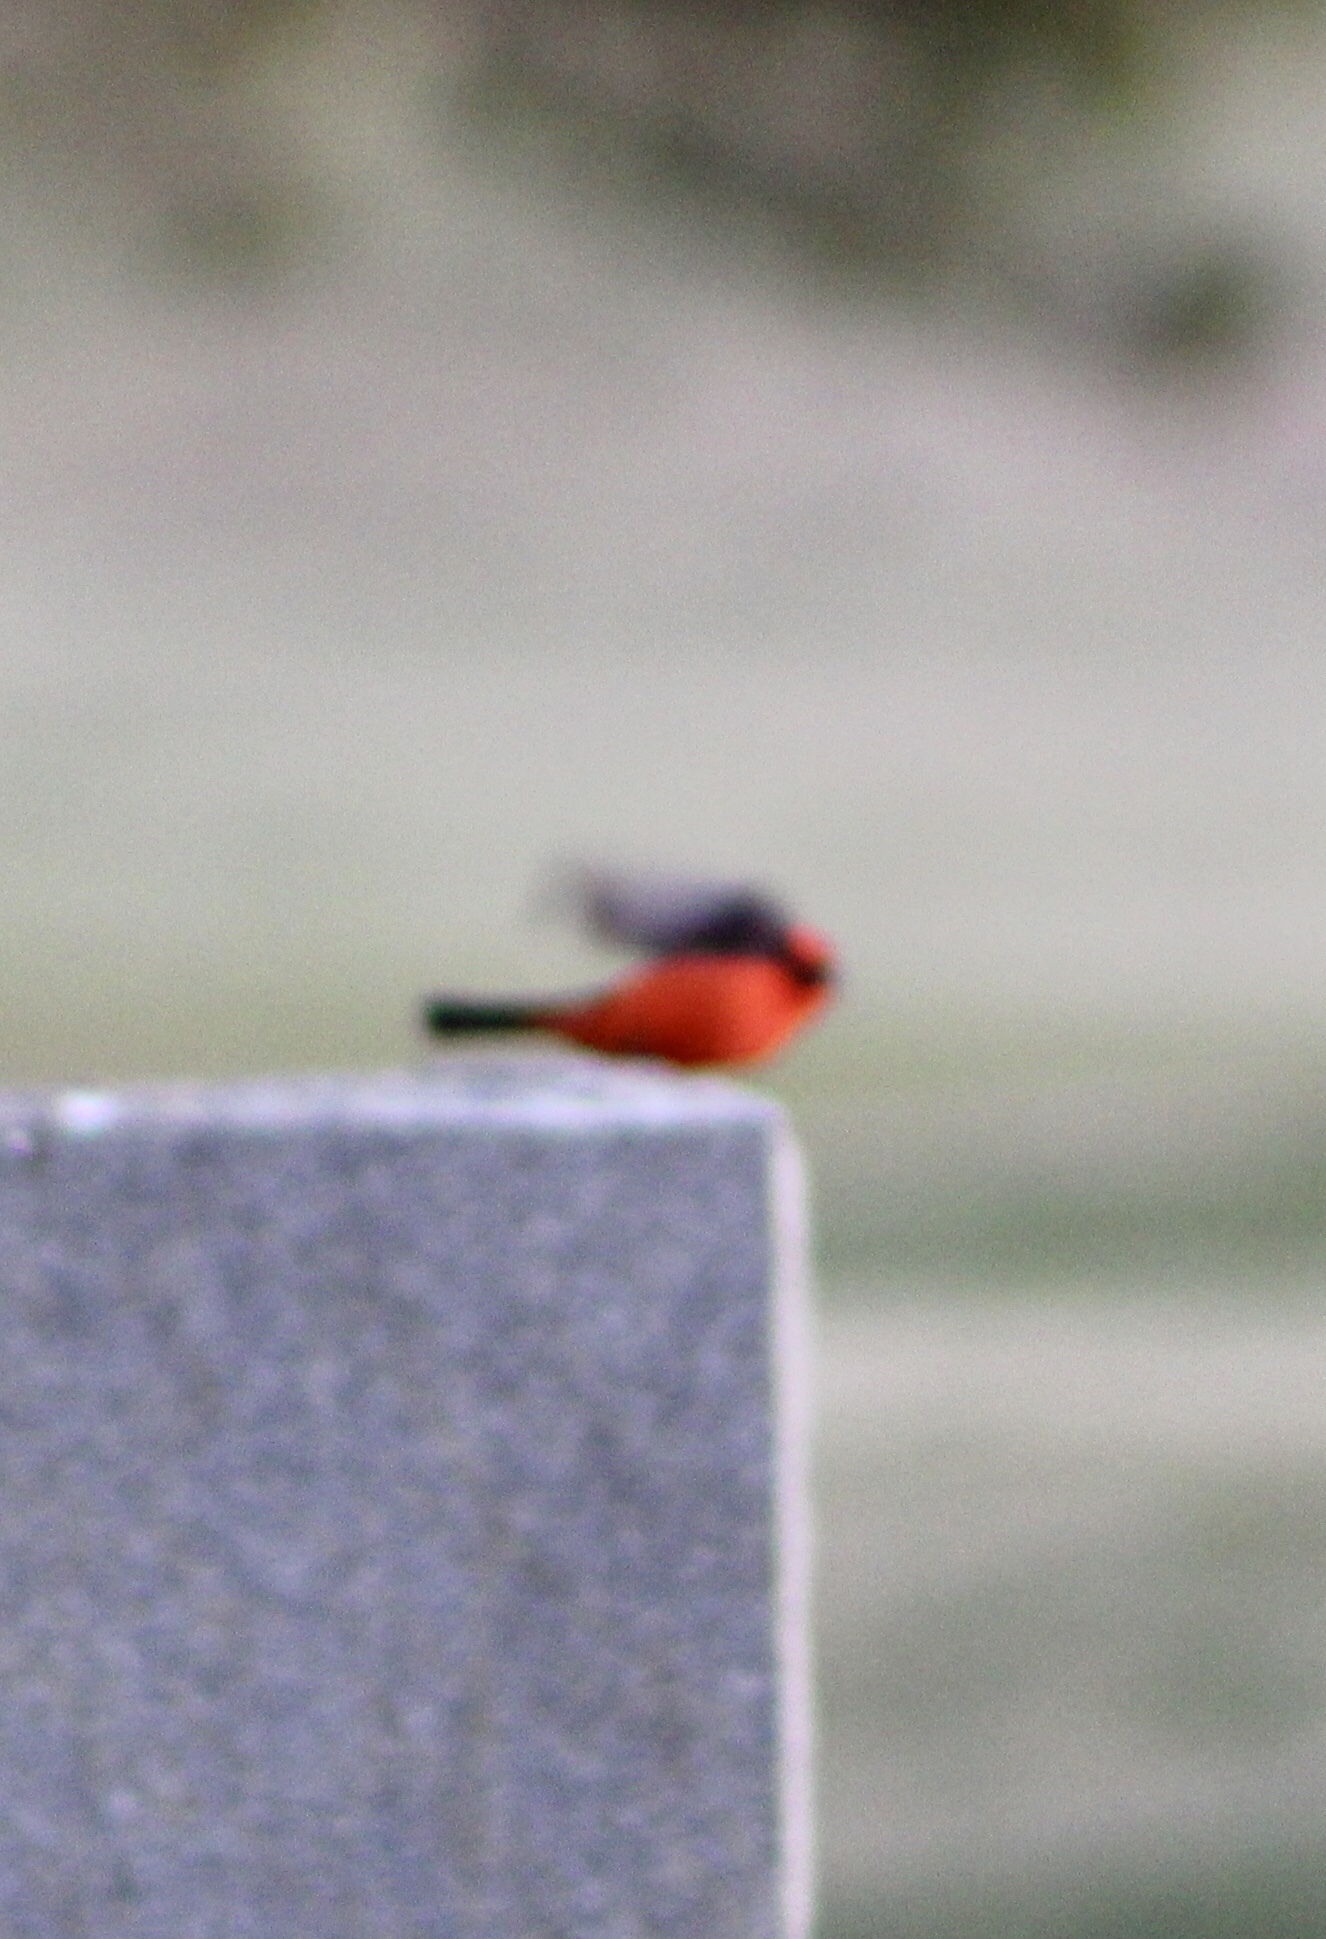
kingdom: Animalia
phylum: Chordata
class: Aves
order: Passeriformes
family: Tyrannidae
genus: Pyrocephalus
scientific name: Pyrocephalus rubinus
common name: Vermilion flycatcher
